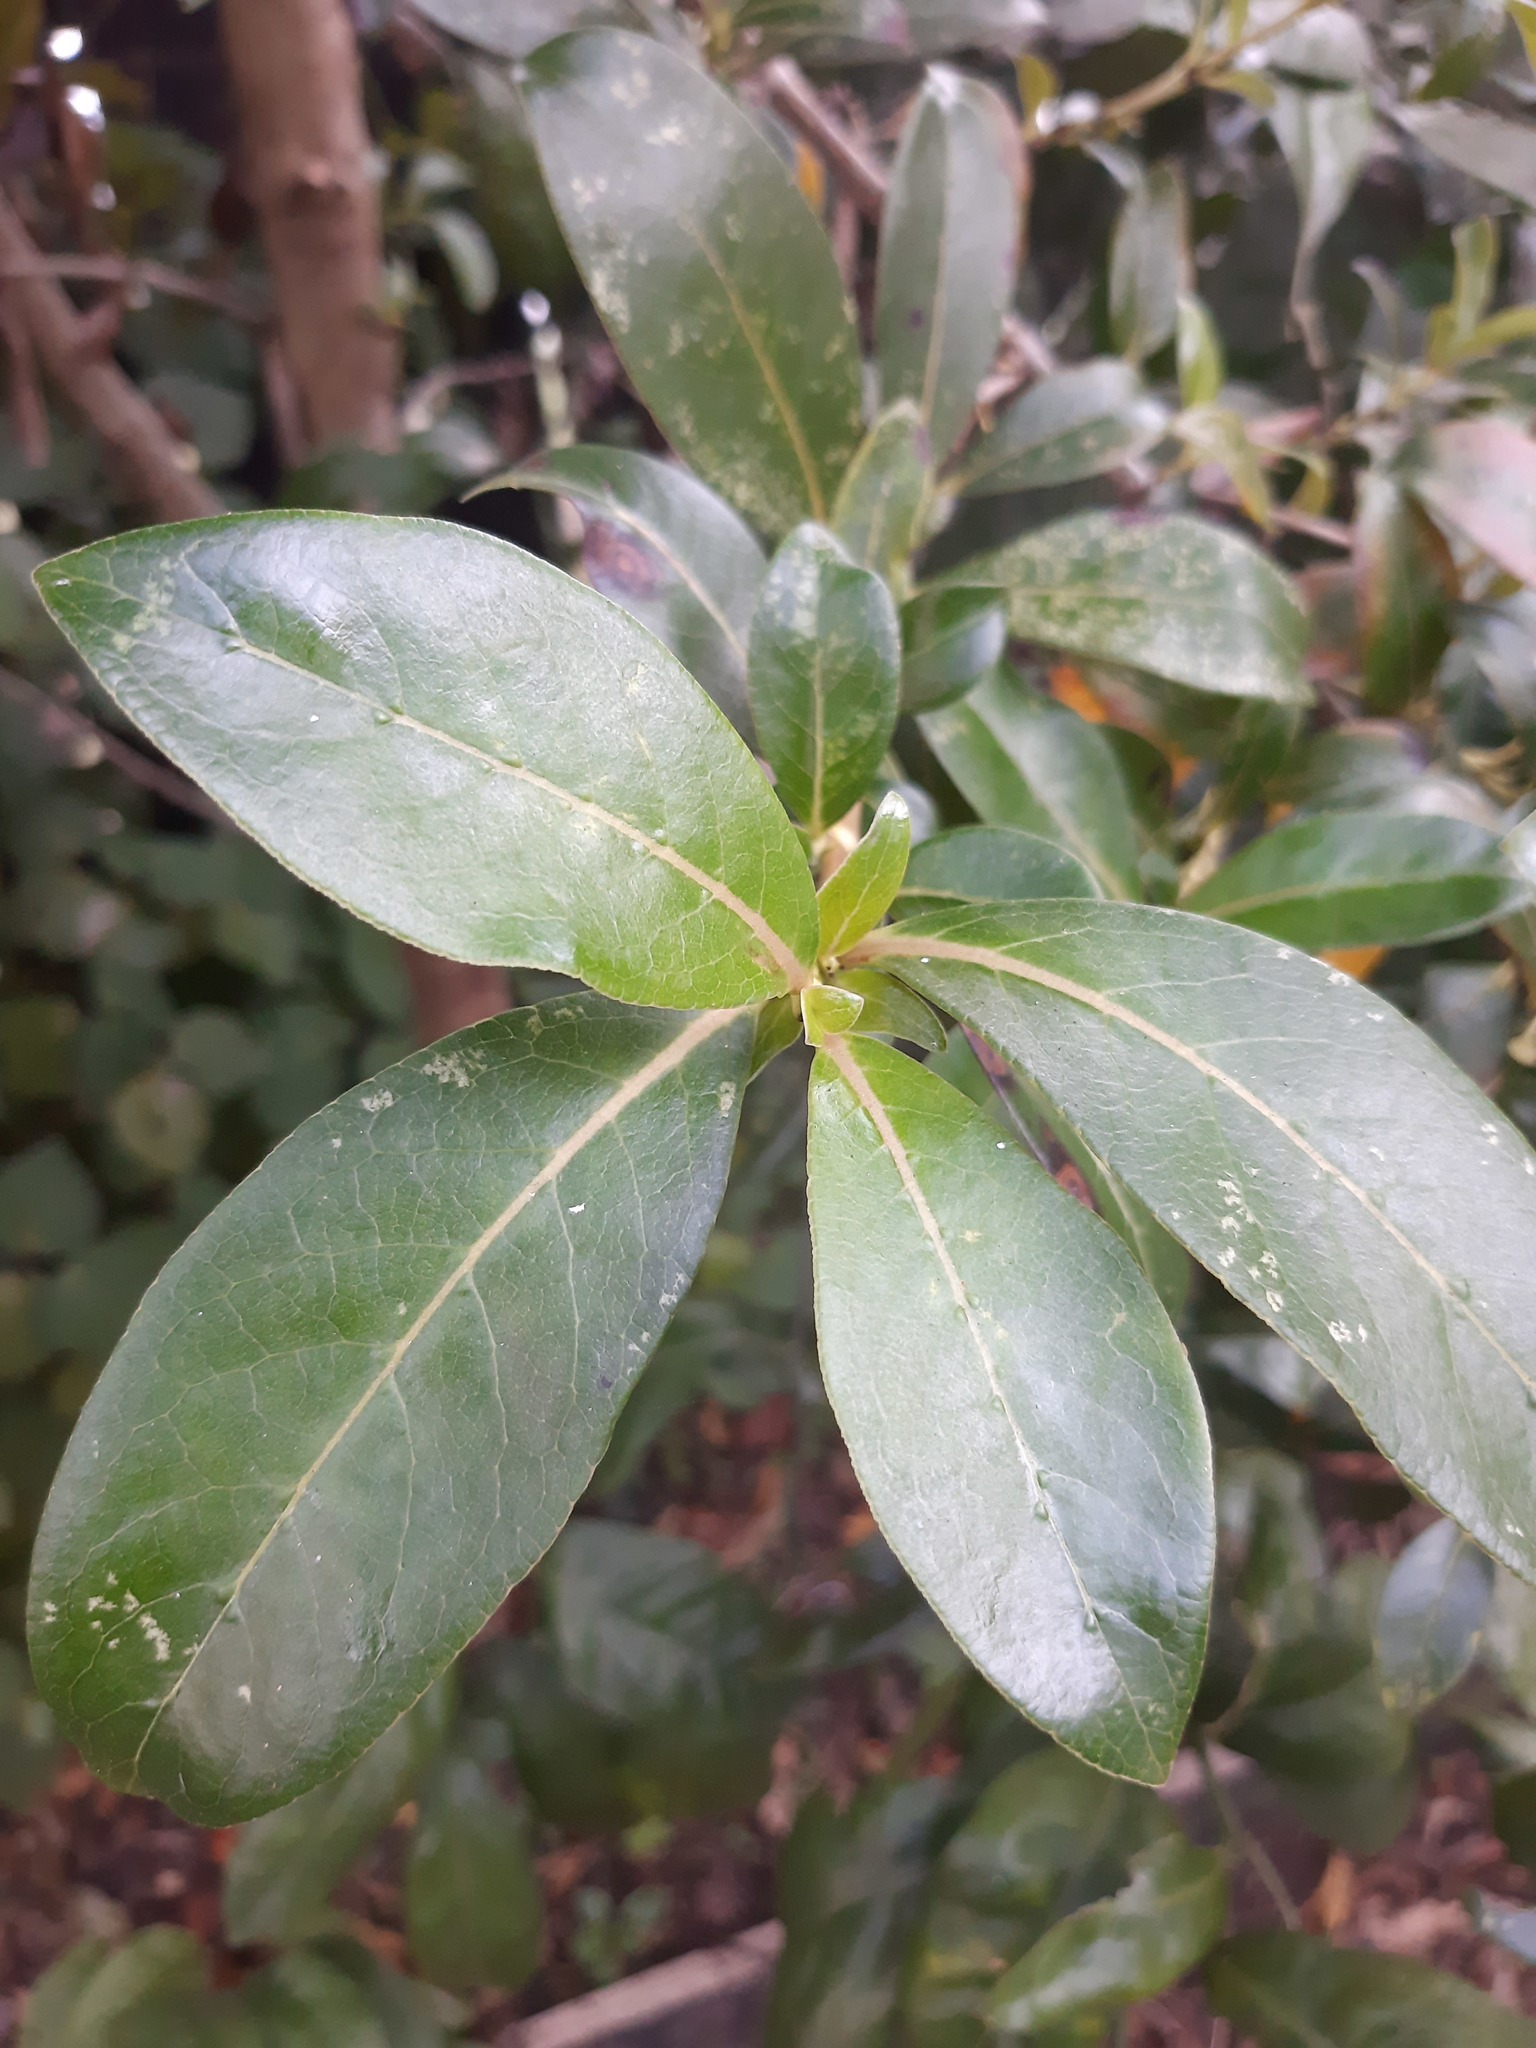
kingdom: Plantae
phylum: Tracheophyta
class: Magnoliopsida
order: Gentianales
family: Rubiaceae
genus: Coprosma
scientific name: Coprosma robusta
